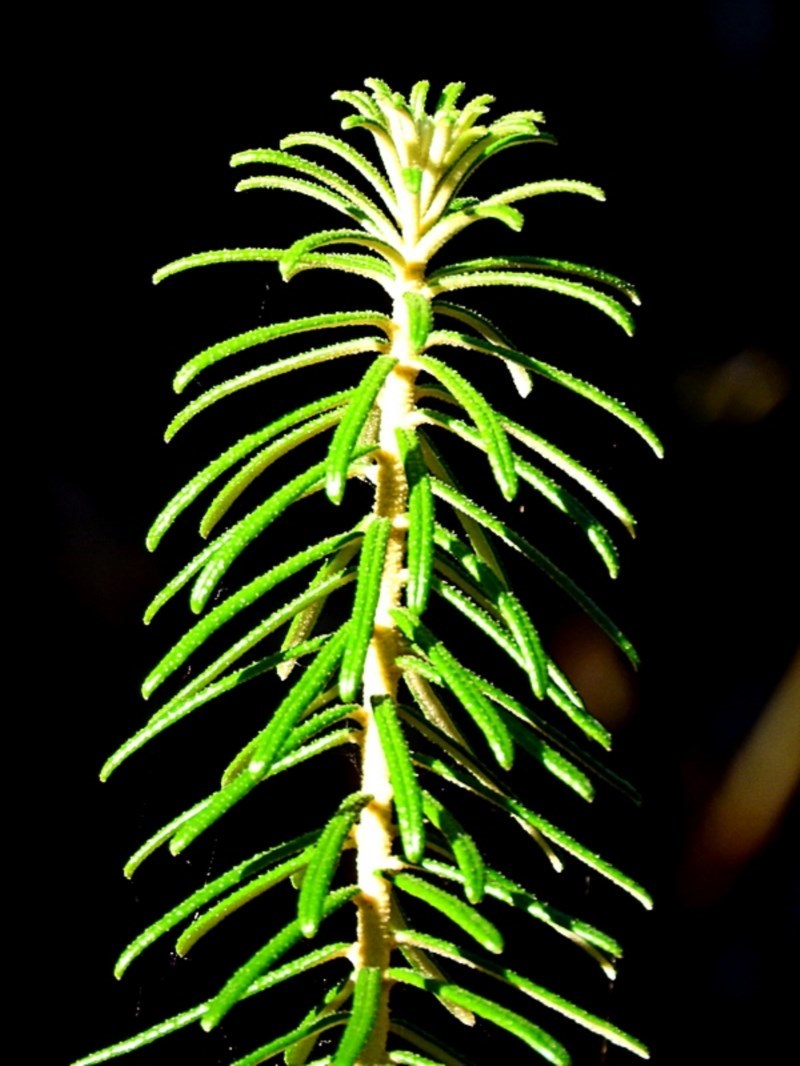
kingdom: Plantae
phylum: Tracheophyta
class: Magnoliopsida
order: Apiales
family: Araliaceae
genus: Astrotricha
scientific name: Astrotricha
